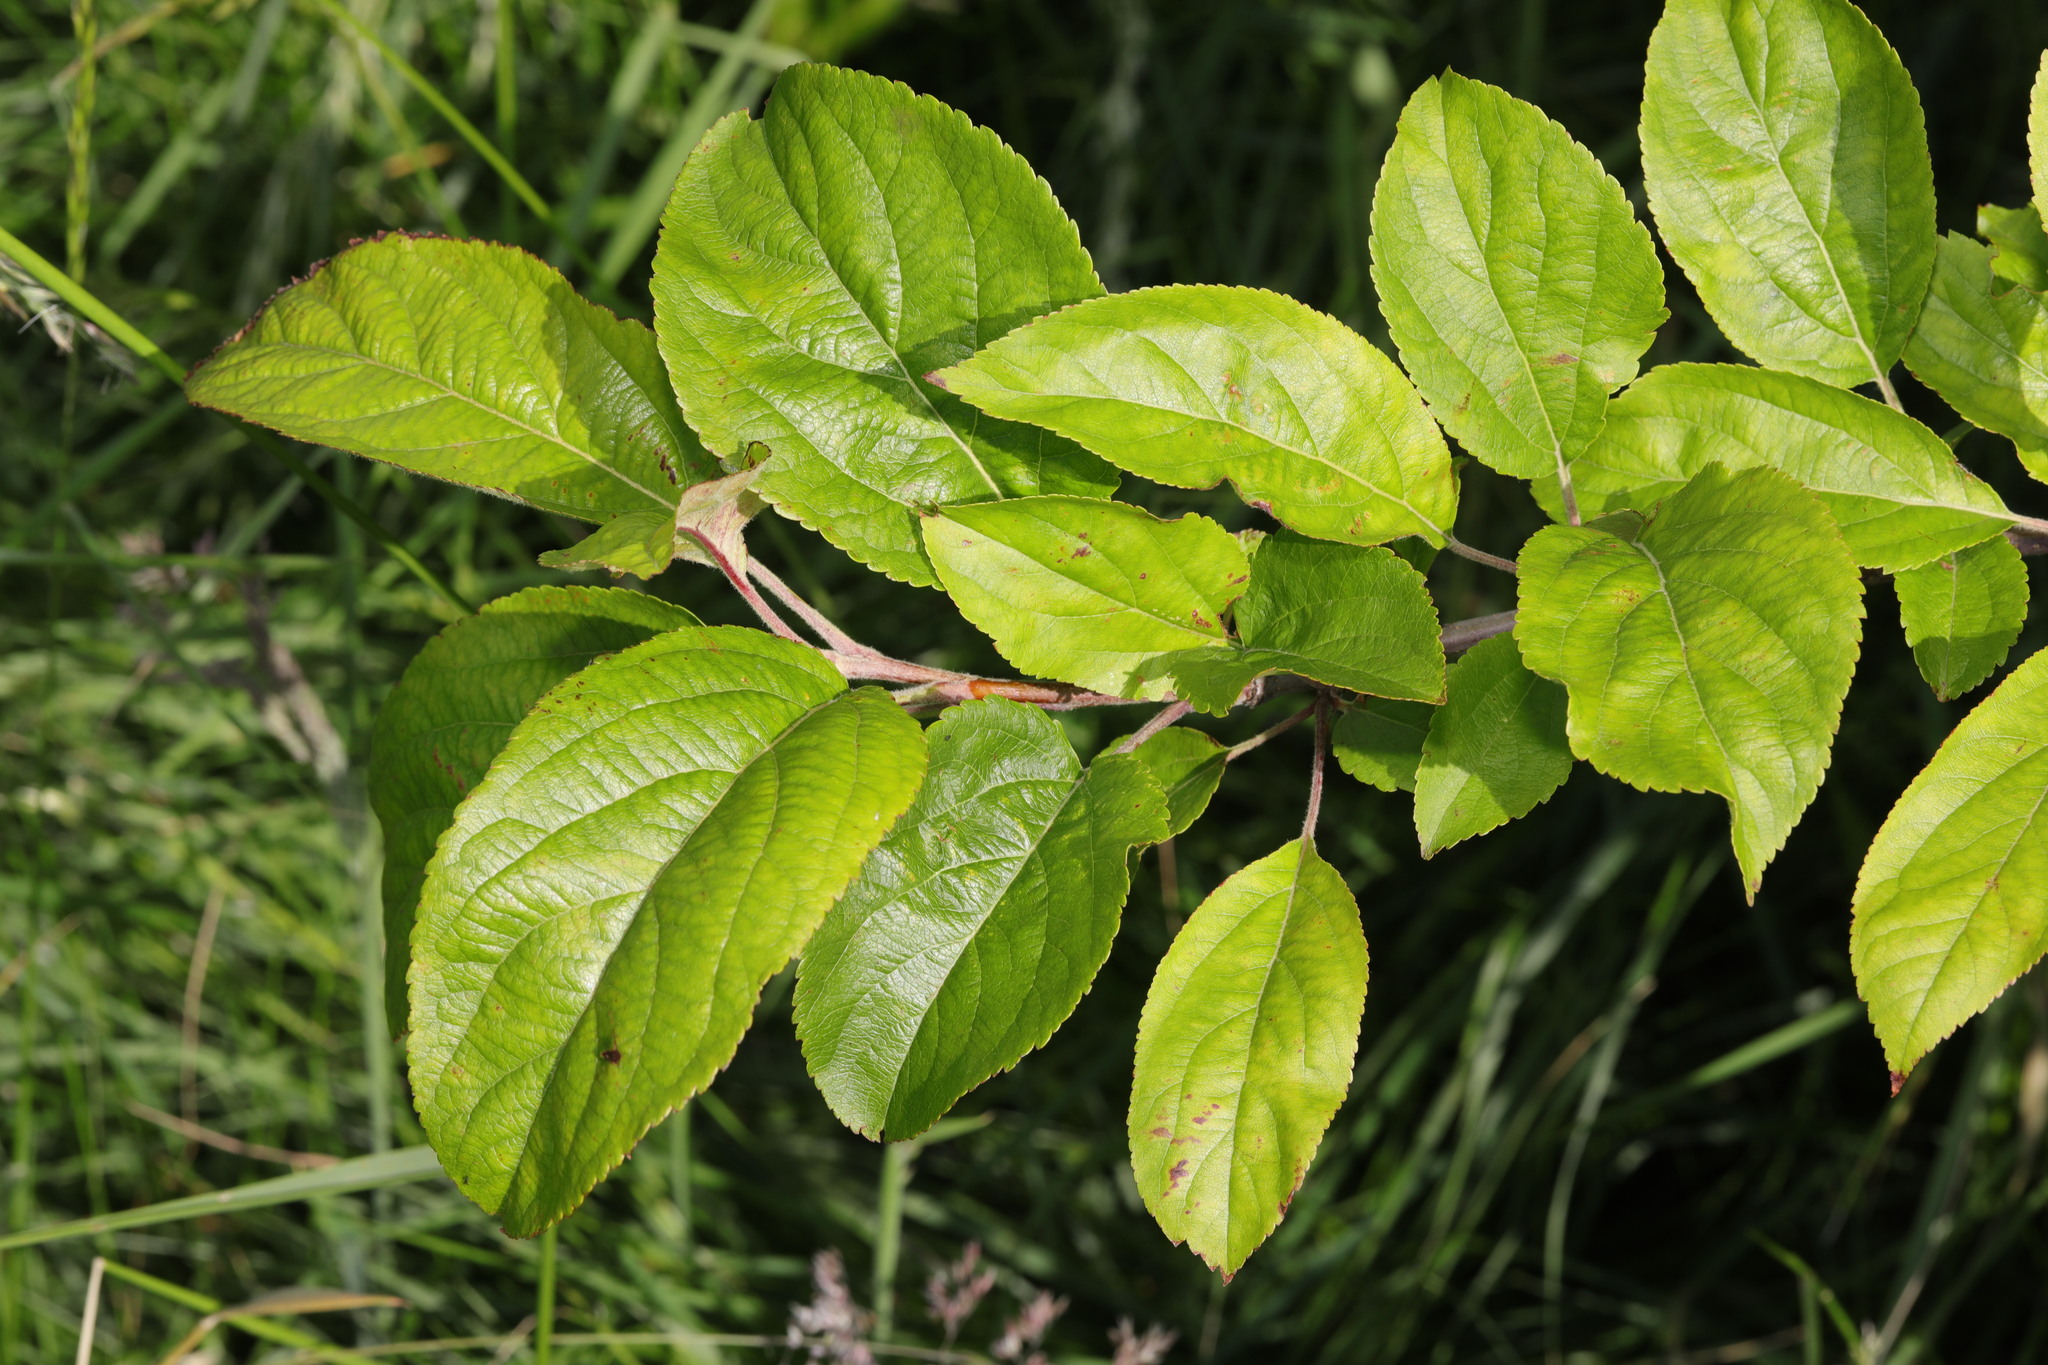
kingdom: Plantae
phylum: Tracheophyta
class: Magnoliopsida
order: Rosales
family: Rosaceae
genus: Malus
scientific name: Malus domestica
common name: Apple
